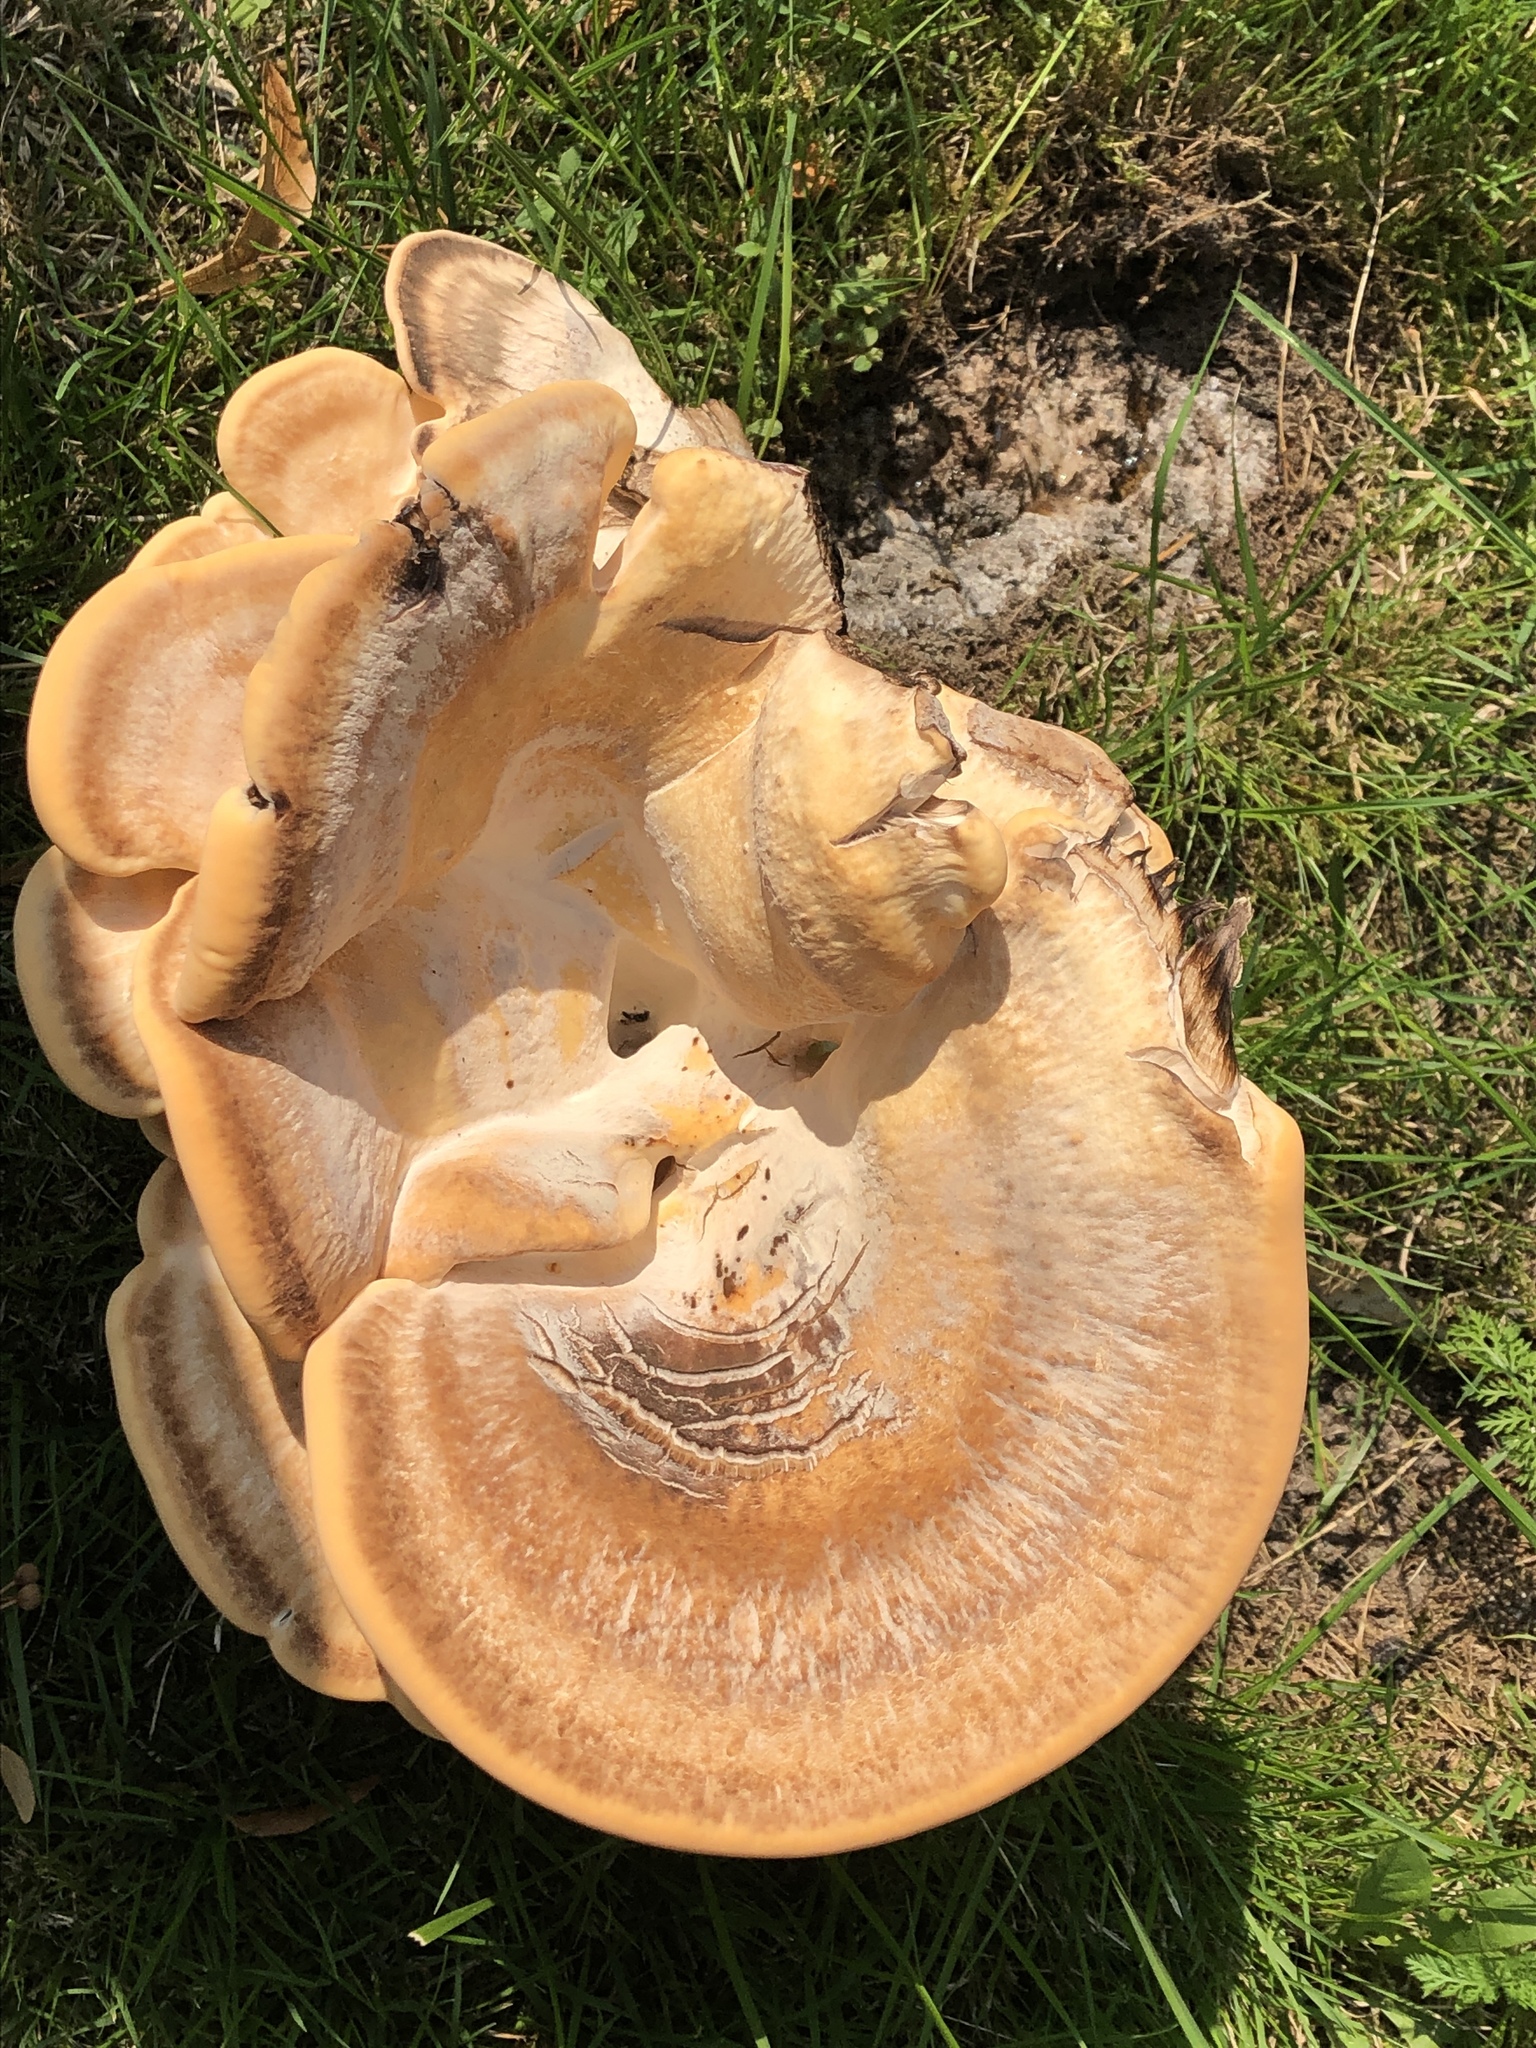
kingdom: Fungi
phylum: Basidiomycota
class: Agaricomycetes
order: Polyporales
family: Meripilaceae
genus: Meripilus
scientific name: Meripilus giganteus
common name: Giant polypore
